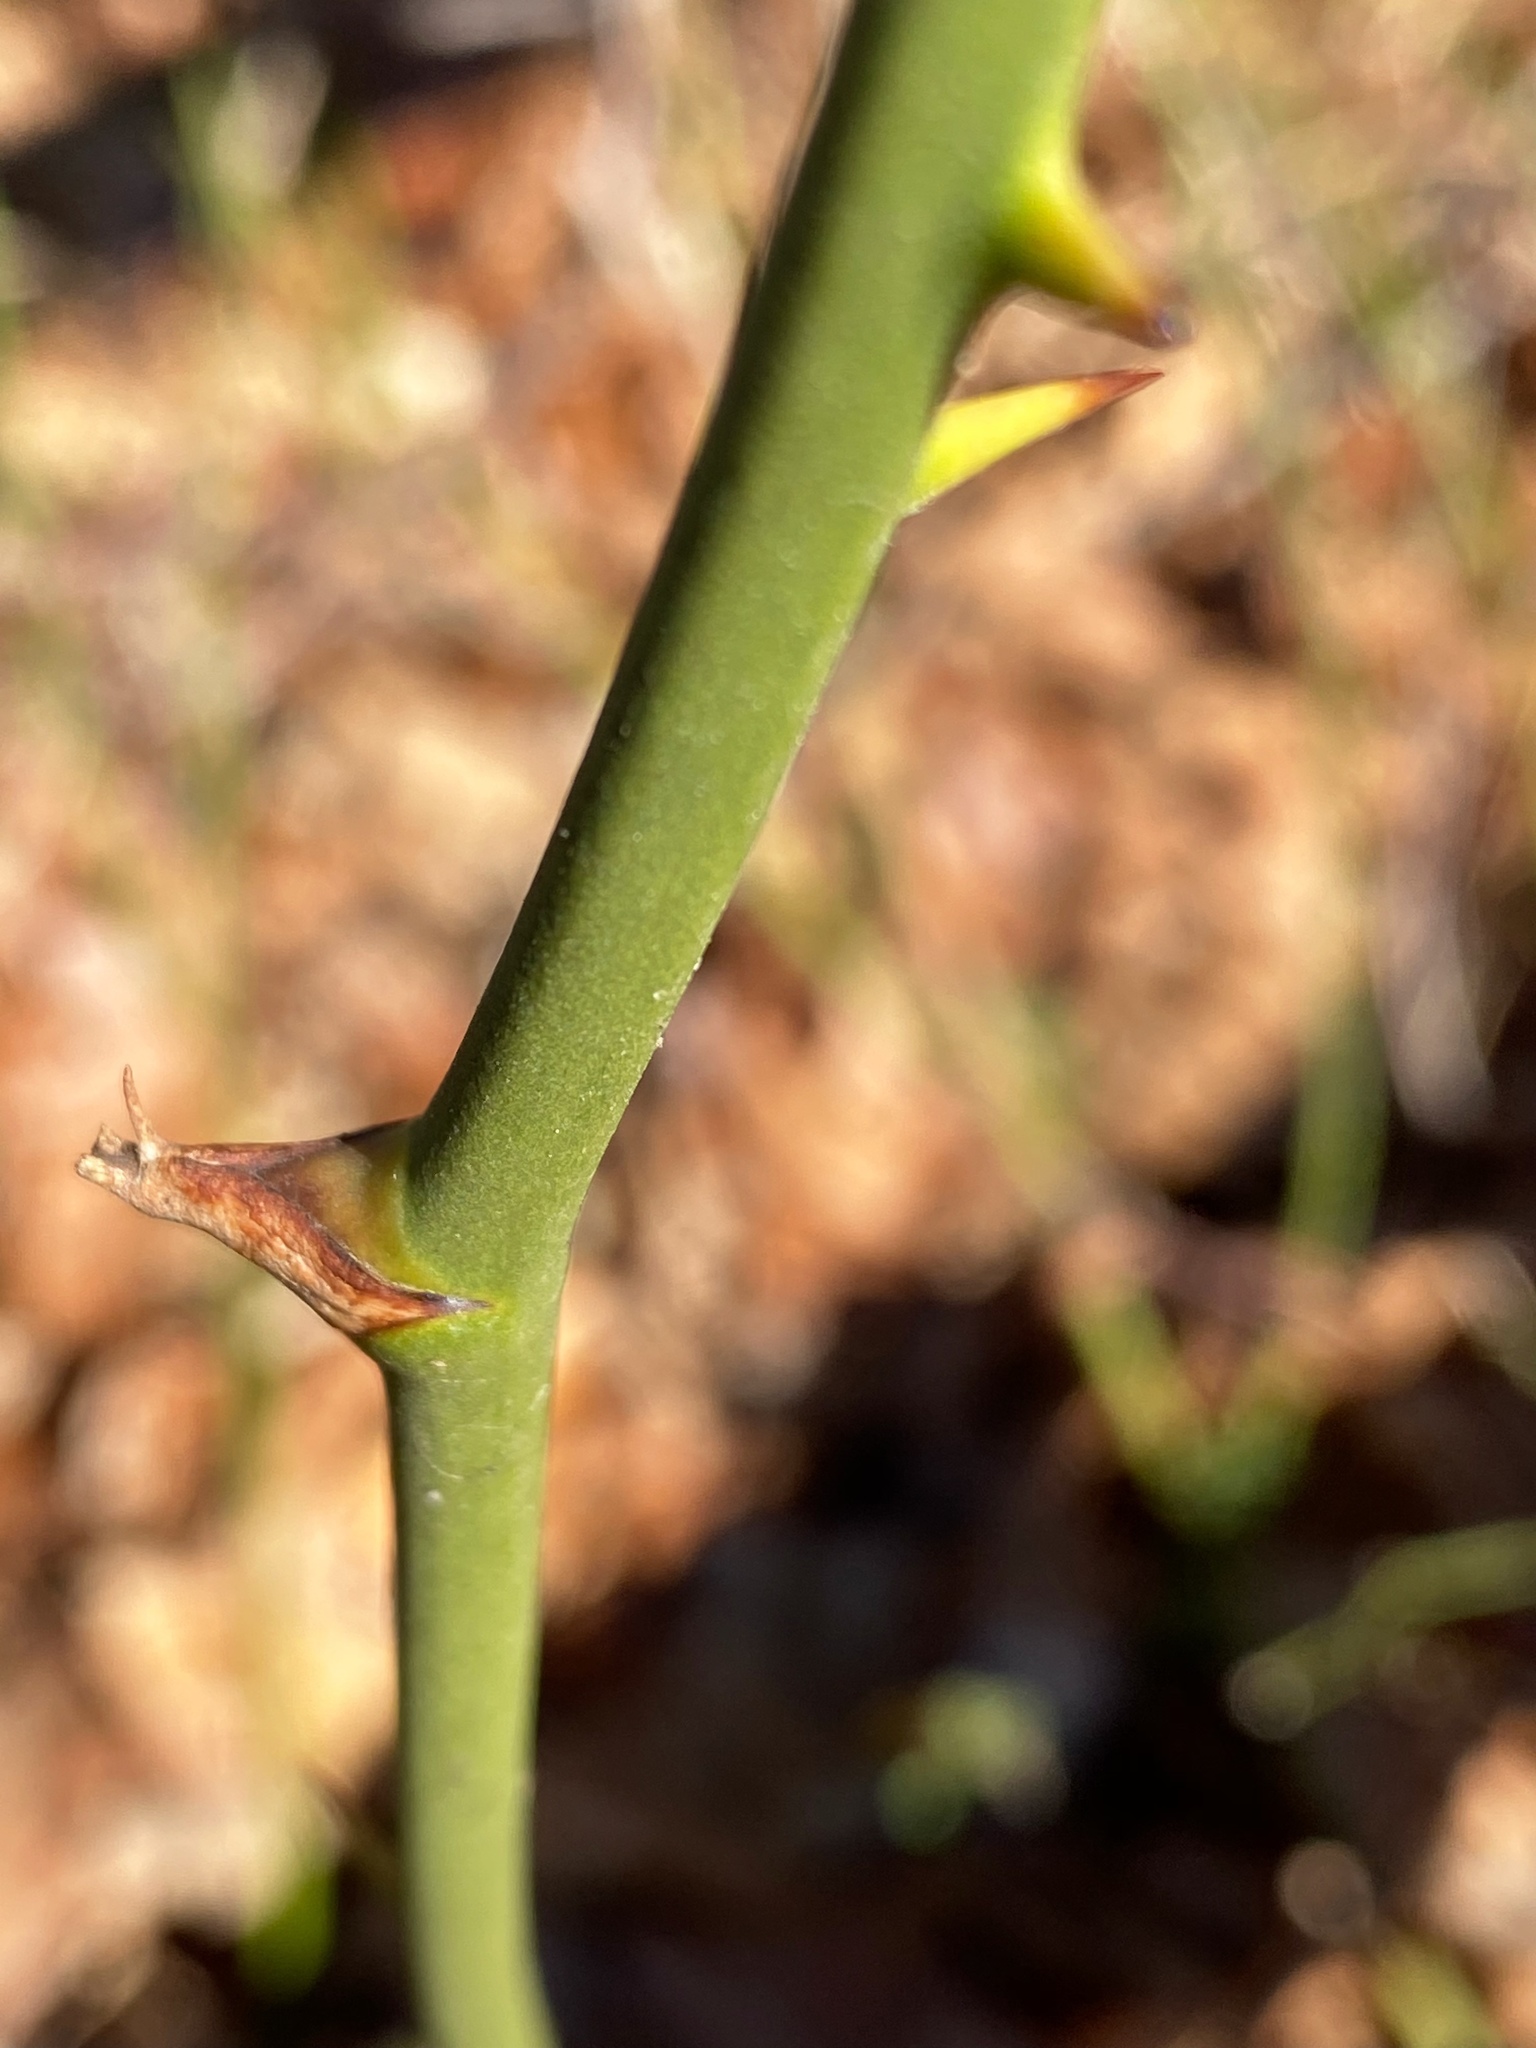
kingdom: Plantae
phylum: Tracheophyta
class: Liliopsida
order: Liliales
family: Smilacaceae
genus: Smilax
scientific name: Smilax rotundifolia
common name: Bullbriar
